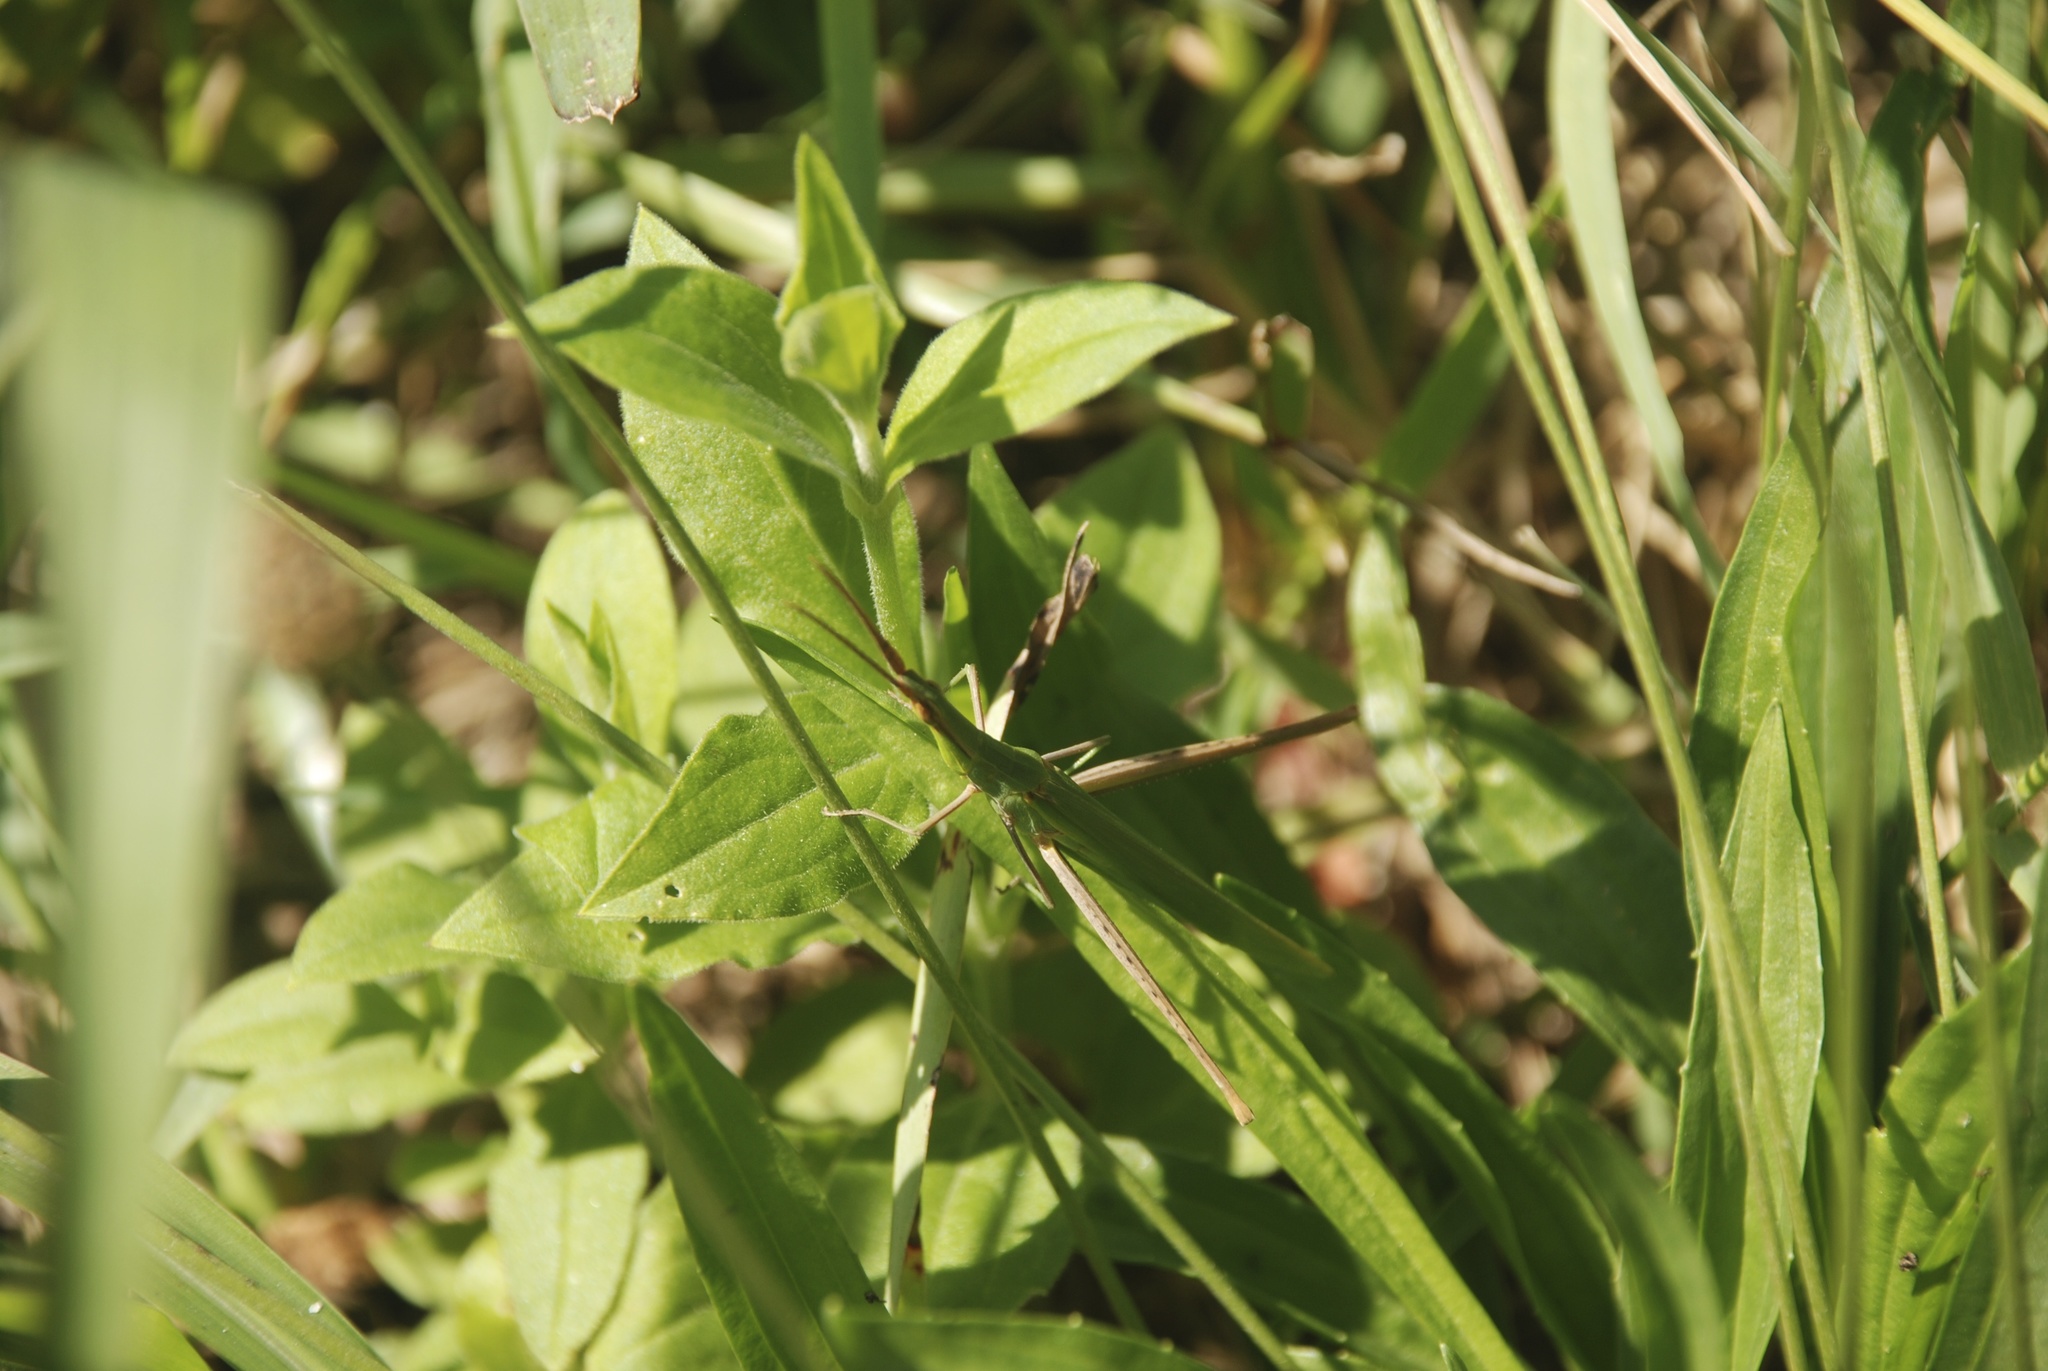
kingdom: Animalia
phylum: Arthropoda
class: Insecta
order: Orthoptera
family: Acrididae
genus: Acrida
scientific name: Acrida ungarica
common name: Common cone-headed grasshopper
